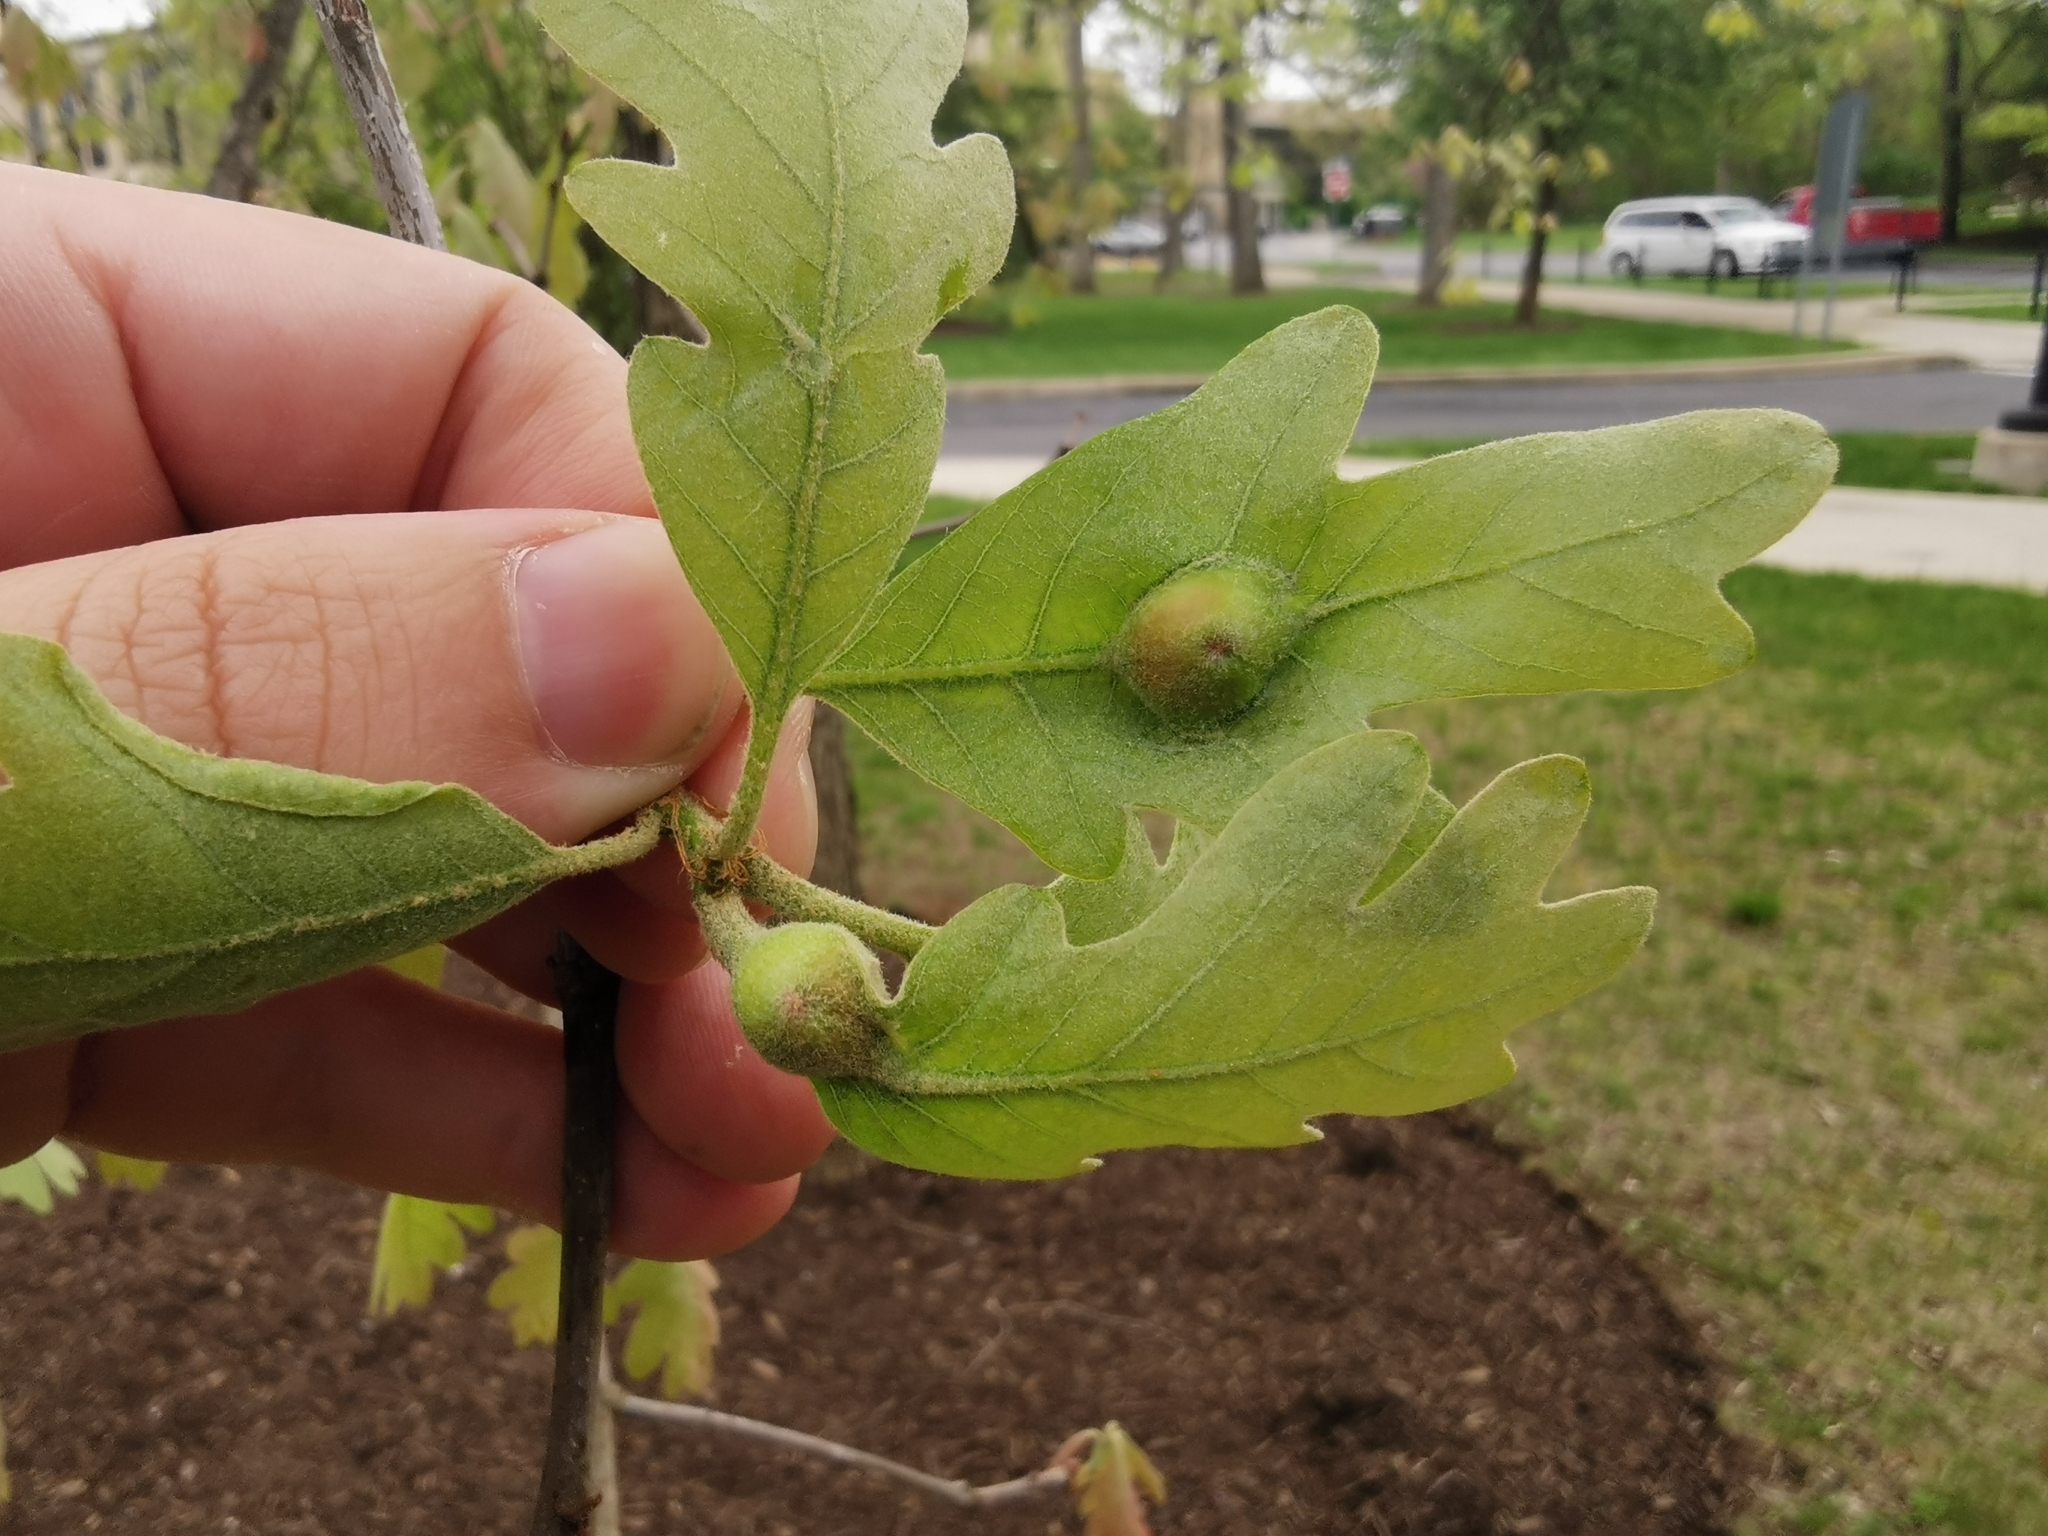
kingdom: Animalia
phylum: Arthropoda
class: Insecta
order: Hymenoptera
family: Cynipidae
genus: Andricus
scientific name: Andricus
